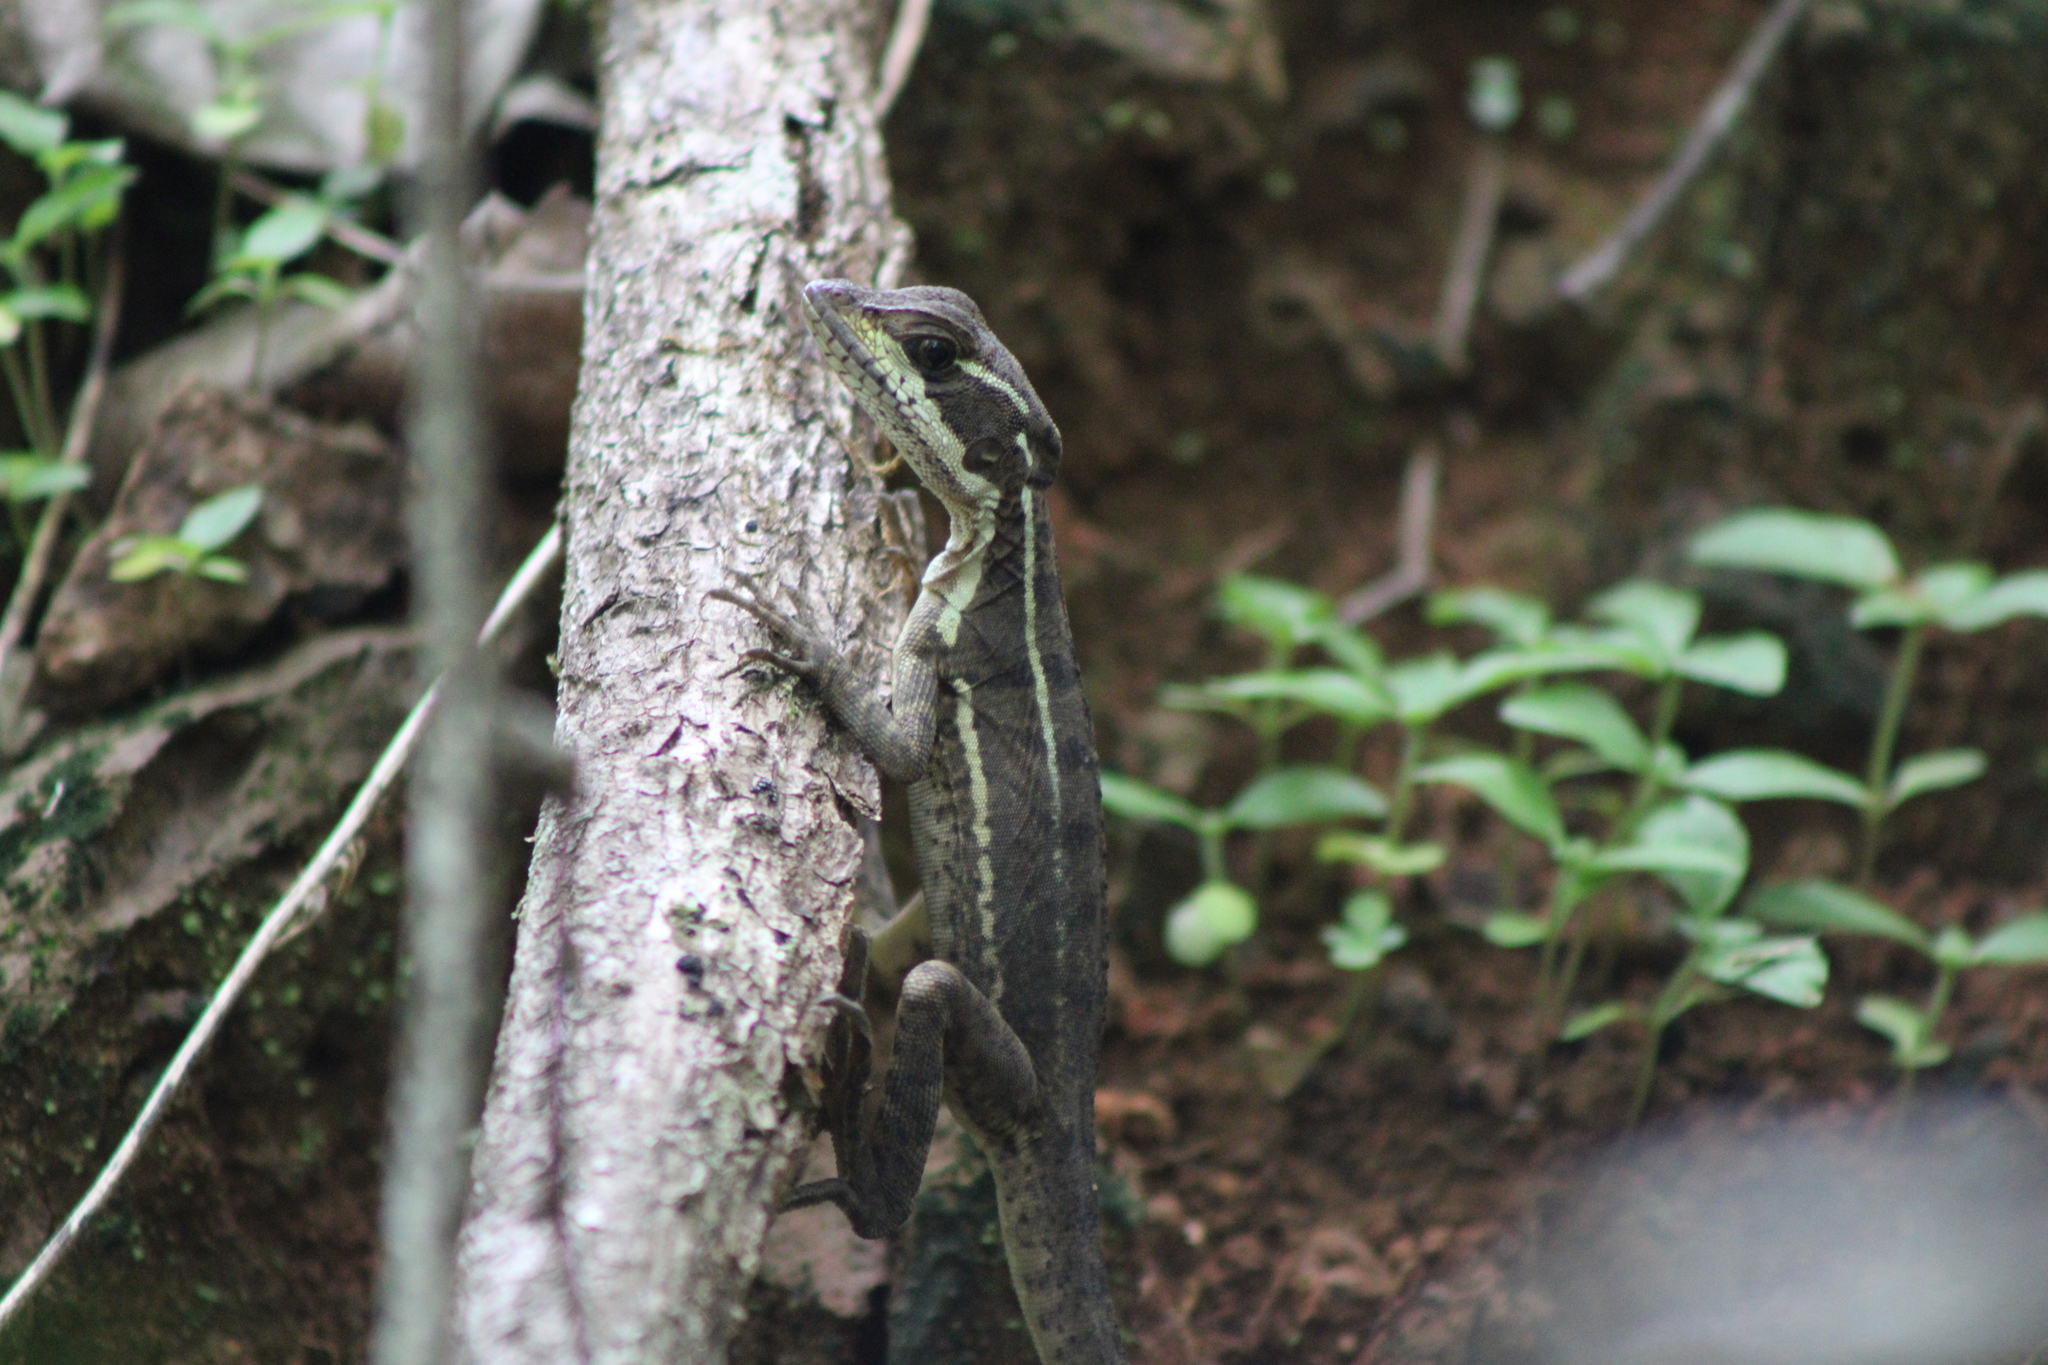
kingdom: Animalia
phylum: Chordata
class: Squamata
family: Corytophanidae
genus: Basiliscus
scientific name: Basiliscus basiliscus
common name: Common basilisk
